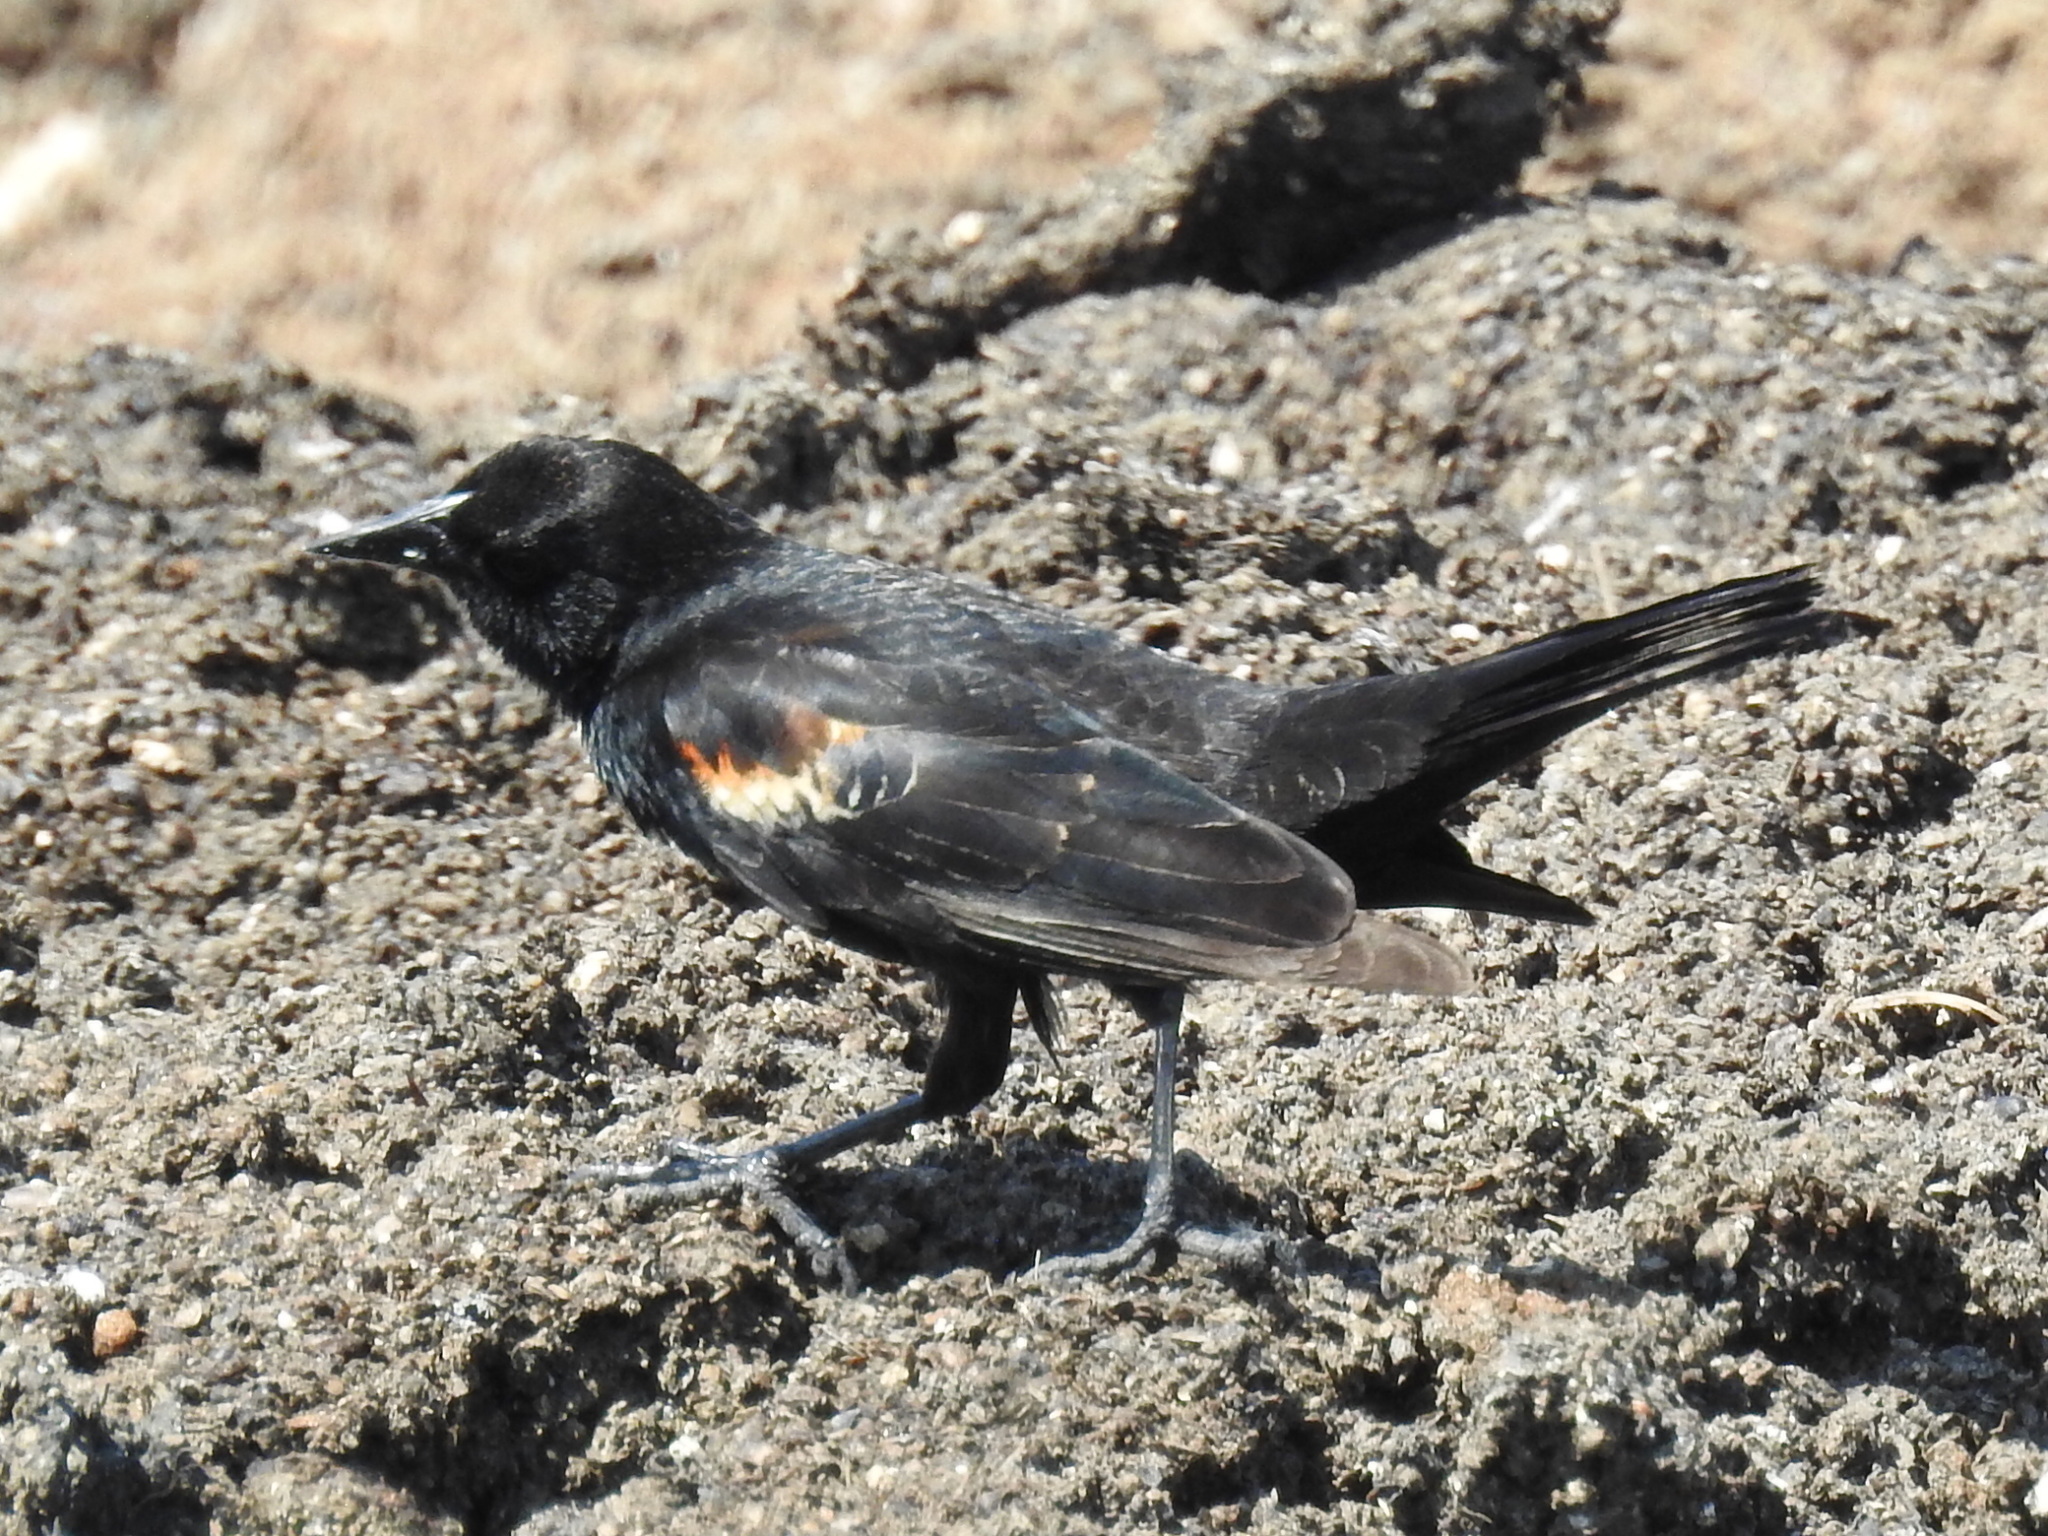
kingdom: Animalia
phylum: Chordata
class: Aves
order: Passeriformes
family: Icteridae
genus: Agelaius
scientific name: Agelaius phoeniceus
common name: Red-winged blackbird
